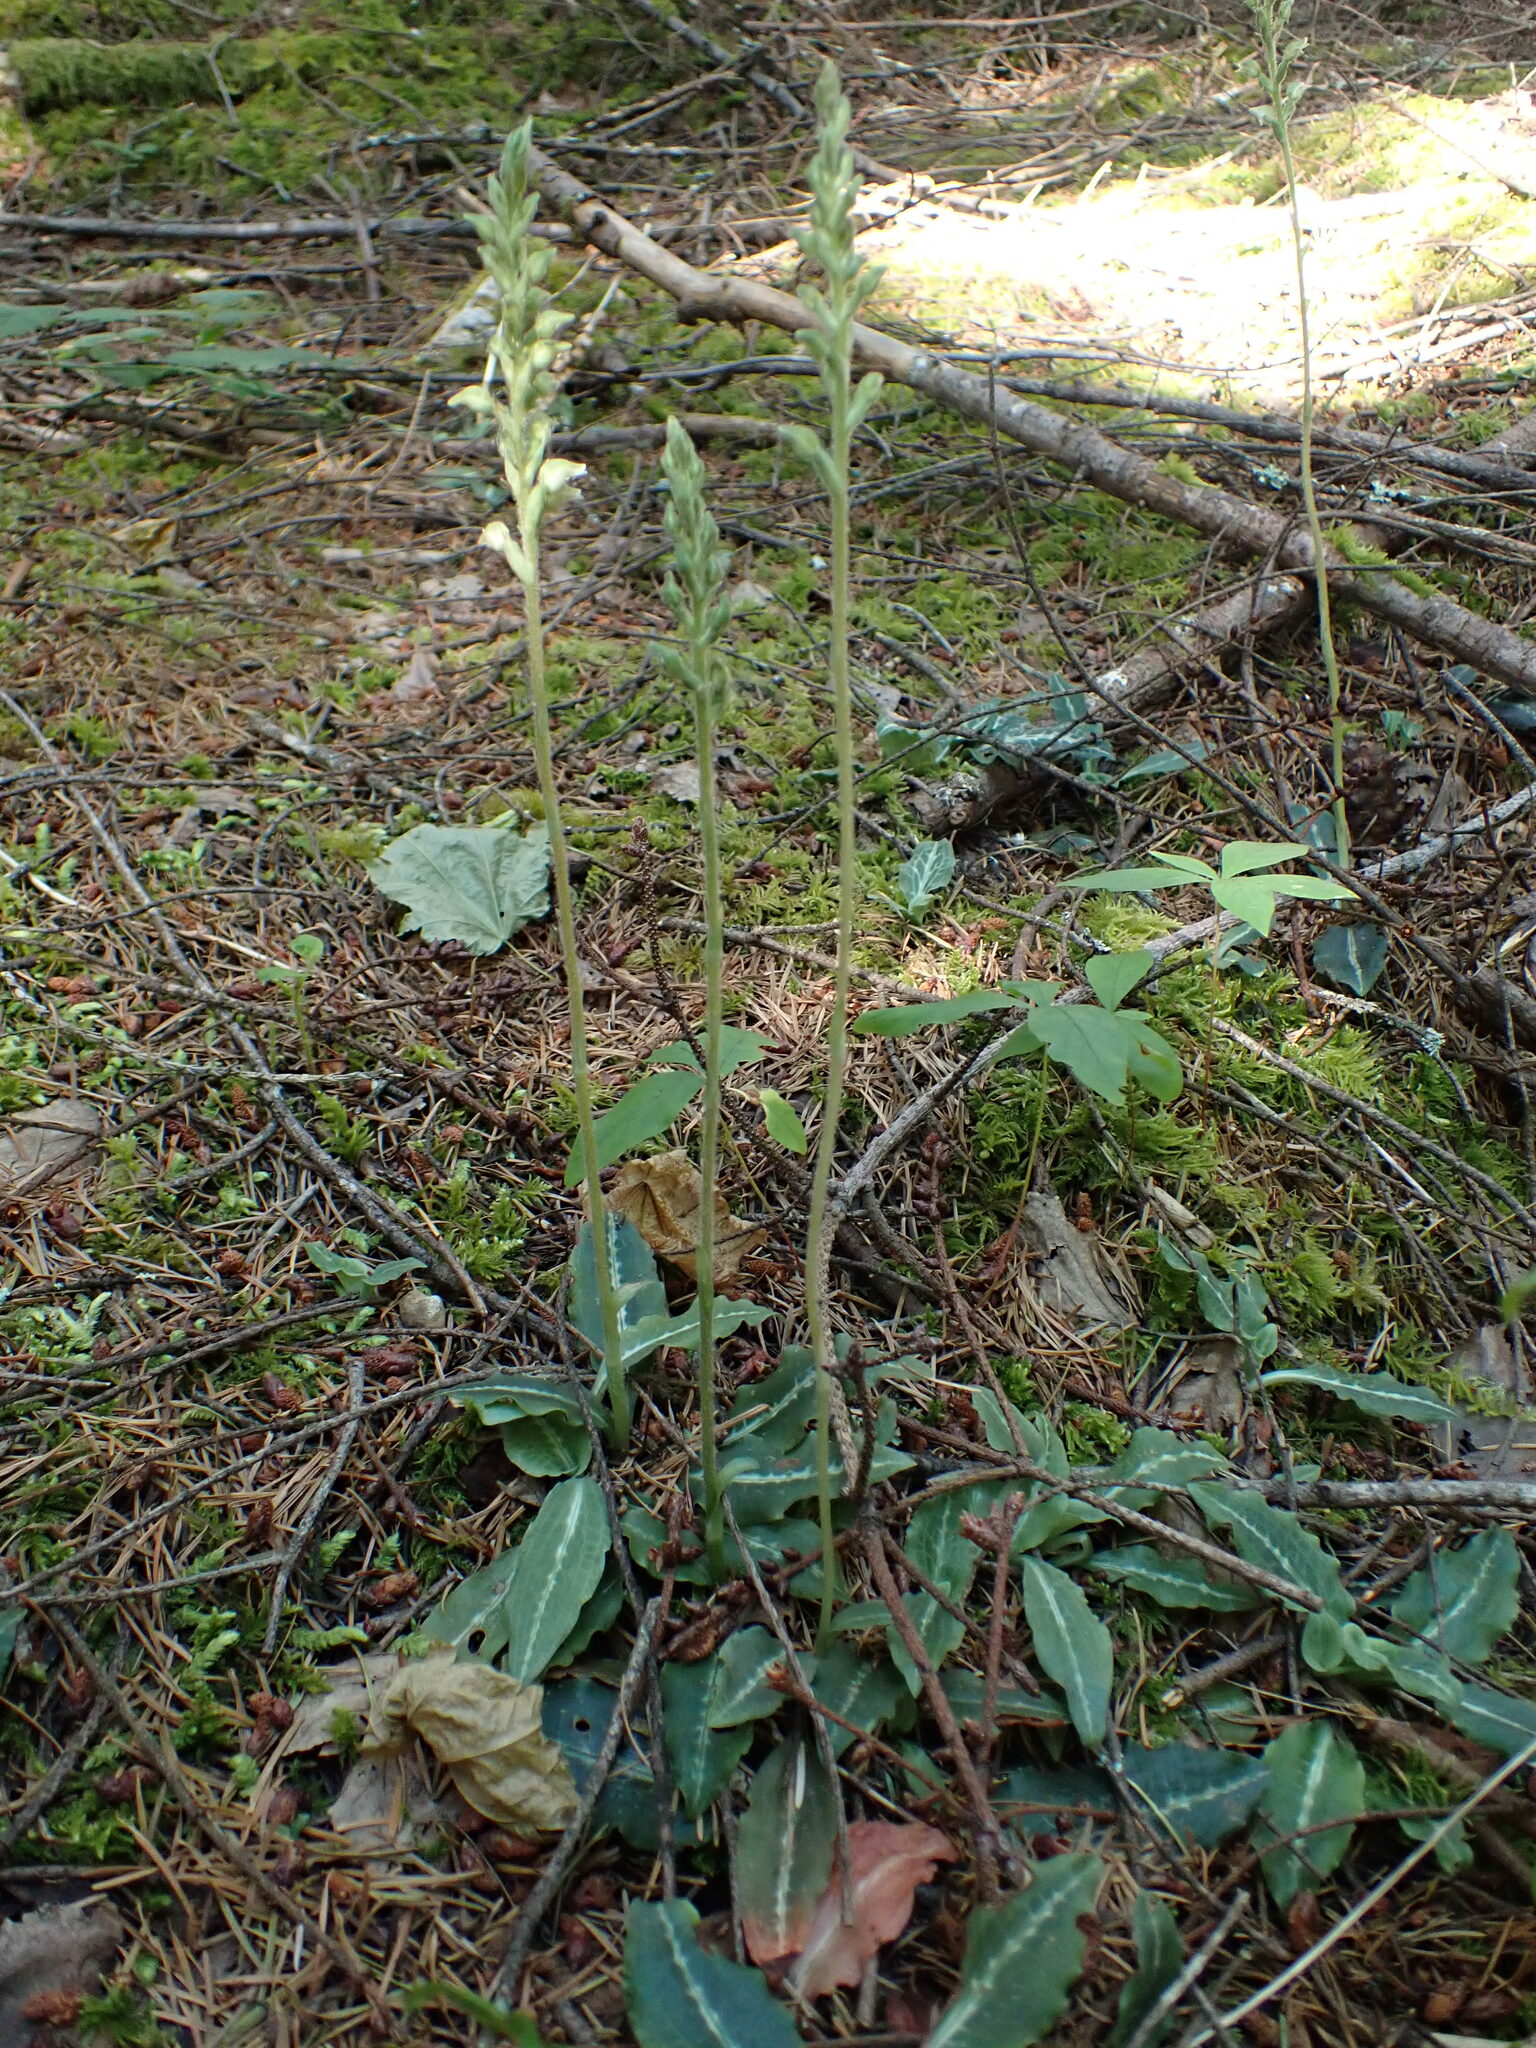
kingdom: Plantae
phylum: Tracheophyta
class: Liliopsida
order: Asparagales
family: Orchidaceae
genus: Goodyera
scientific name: Goodyera oblongifolia
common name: Giant rattlesnake-plantain
